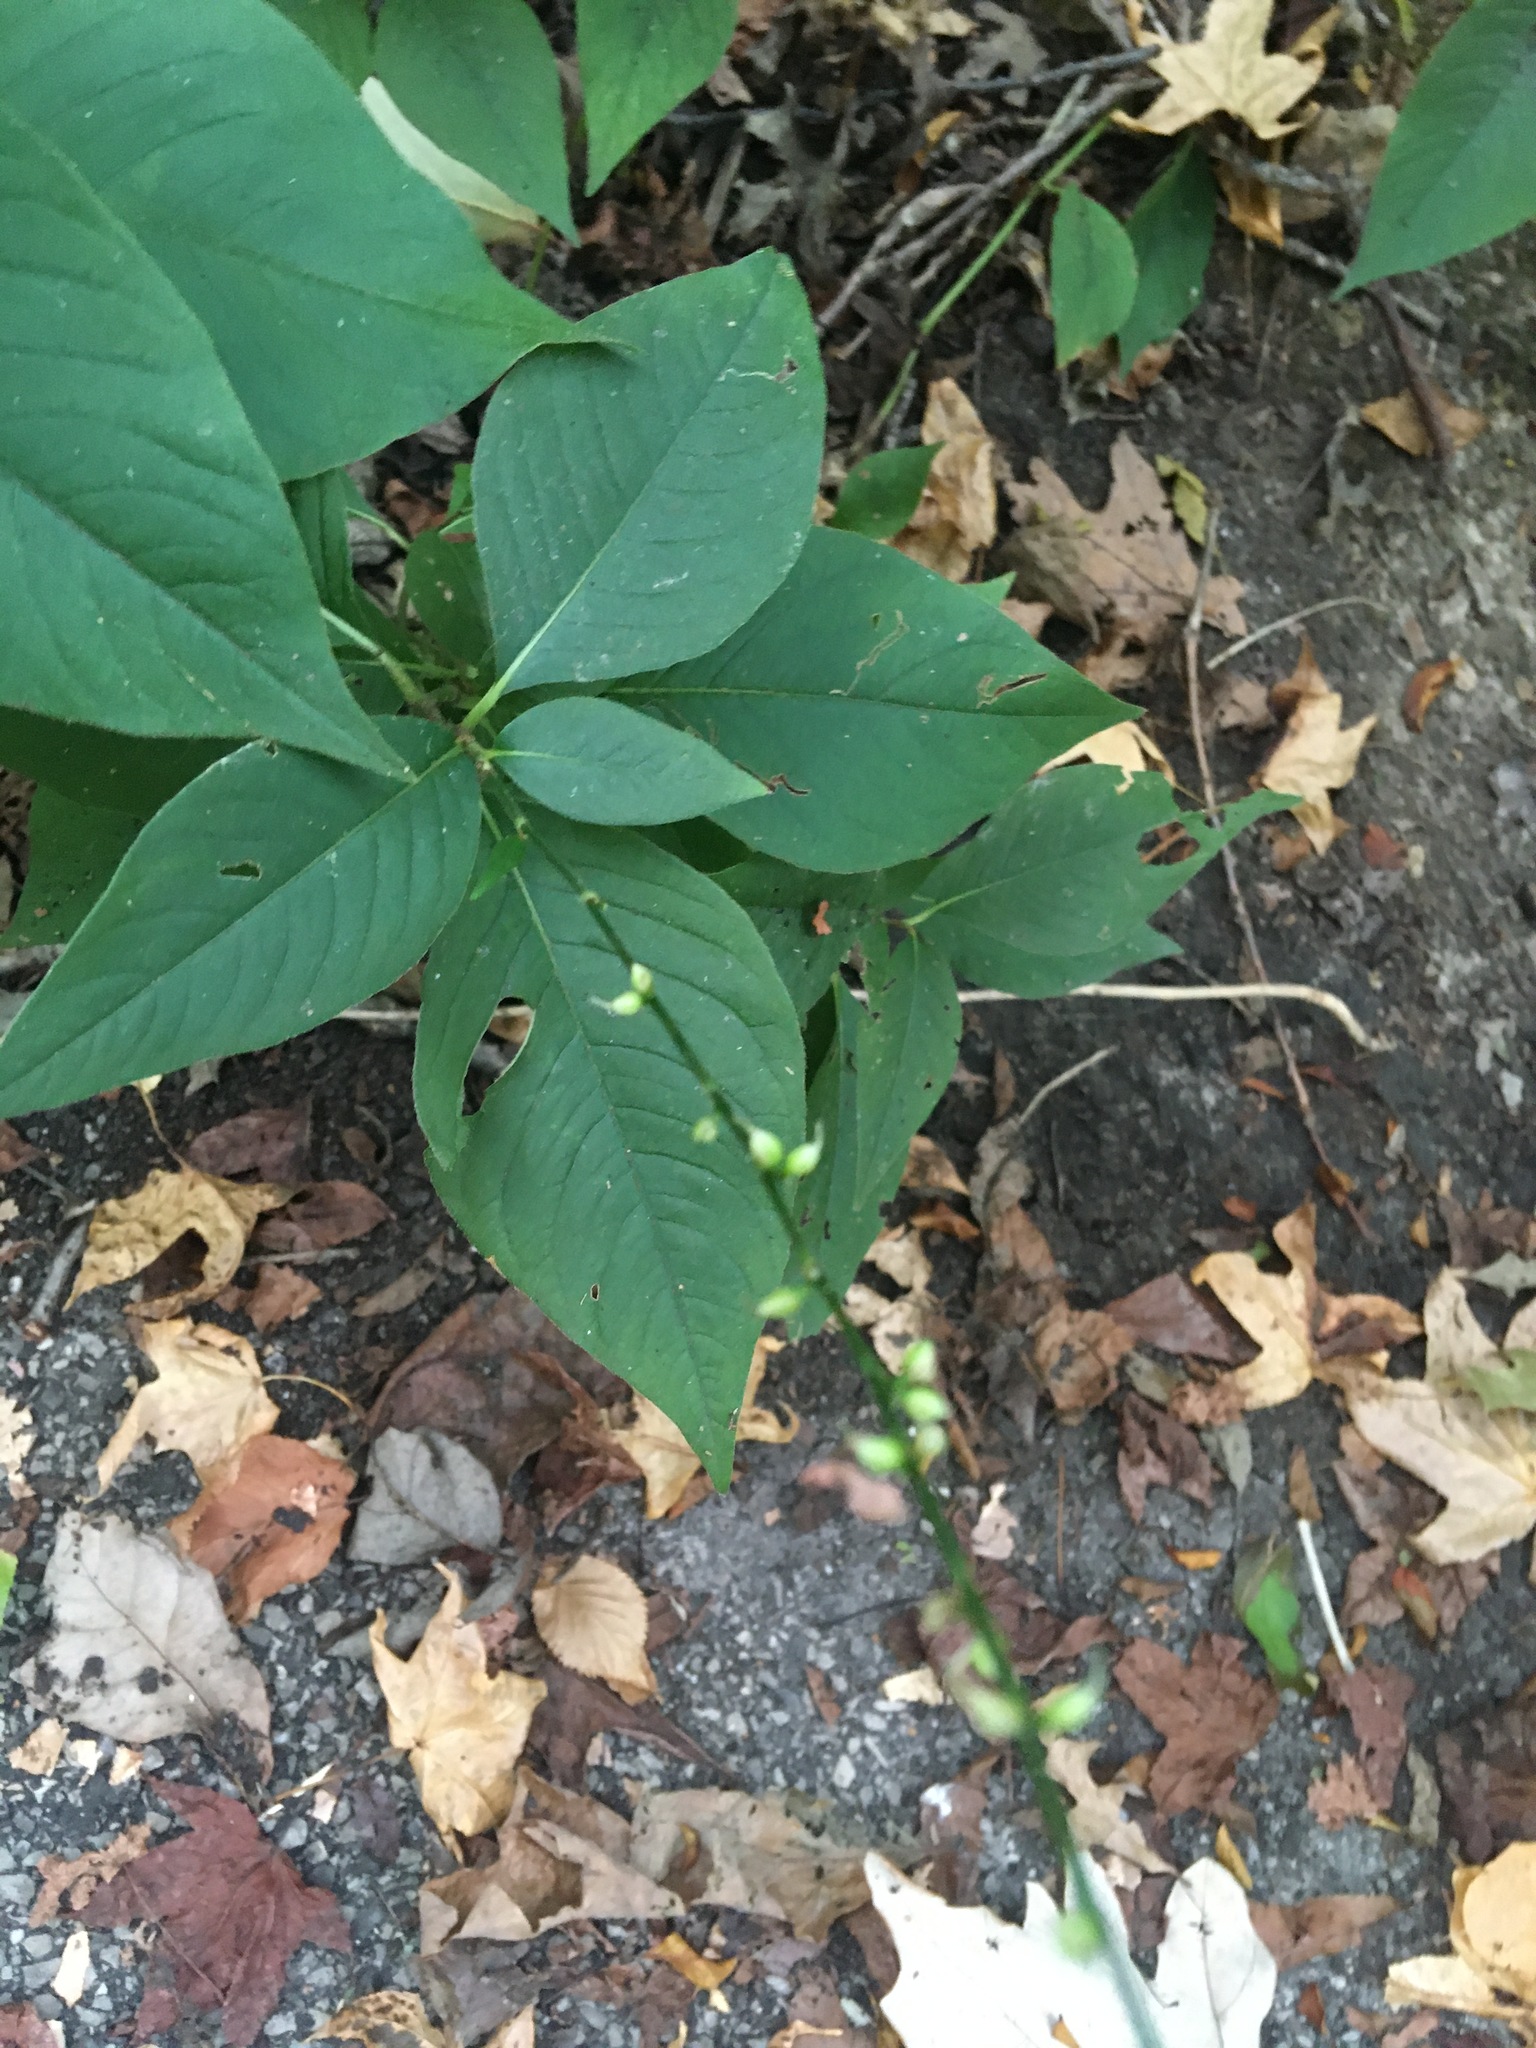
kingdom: Plantae
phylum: Tracheophyta
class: Magnoliopsida
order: Caryophyllales
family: Polygonaceae
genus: Persicaria
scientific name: Persicaria virginiana
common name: Jumpseed
